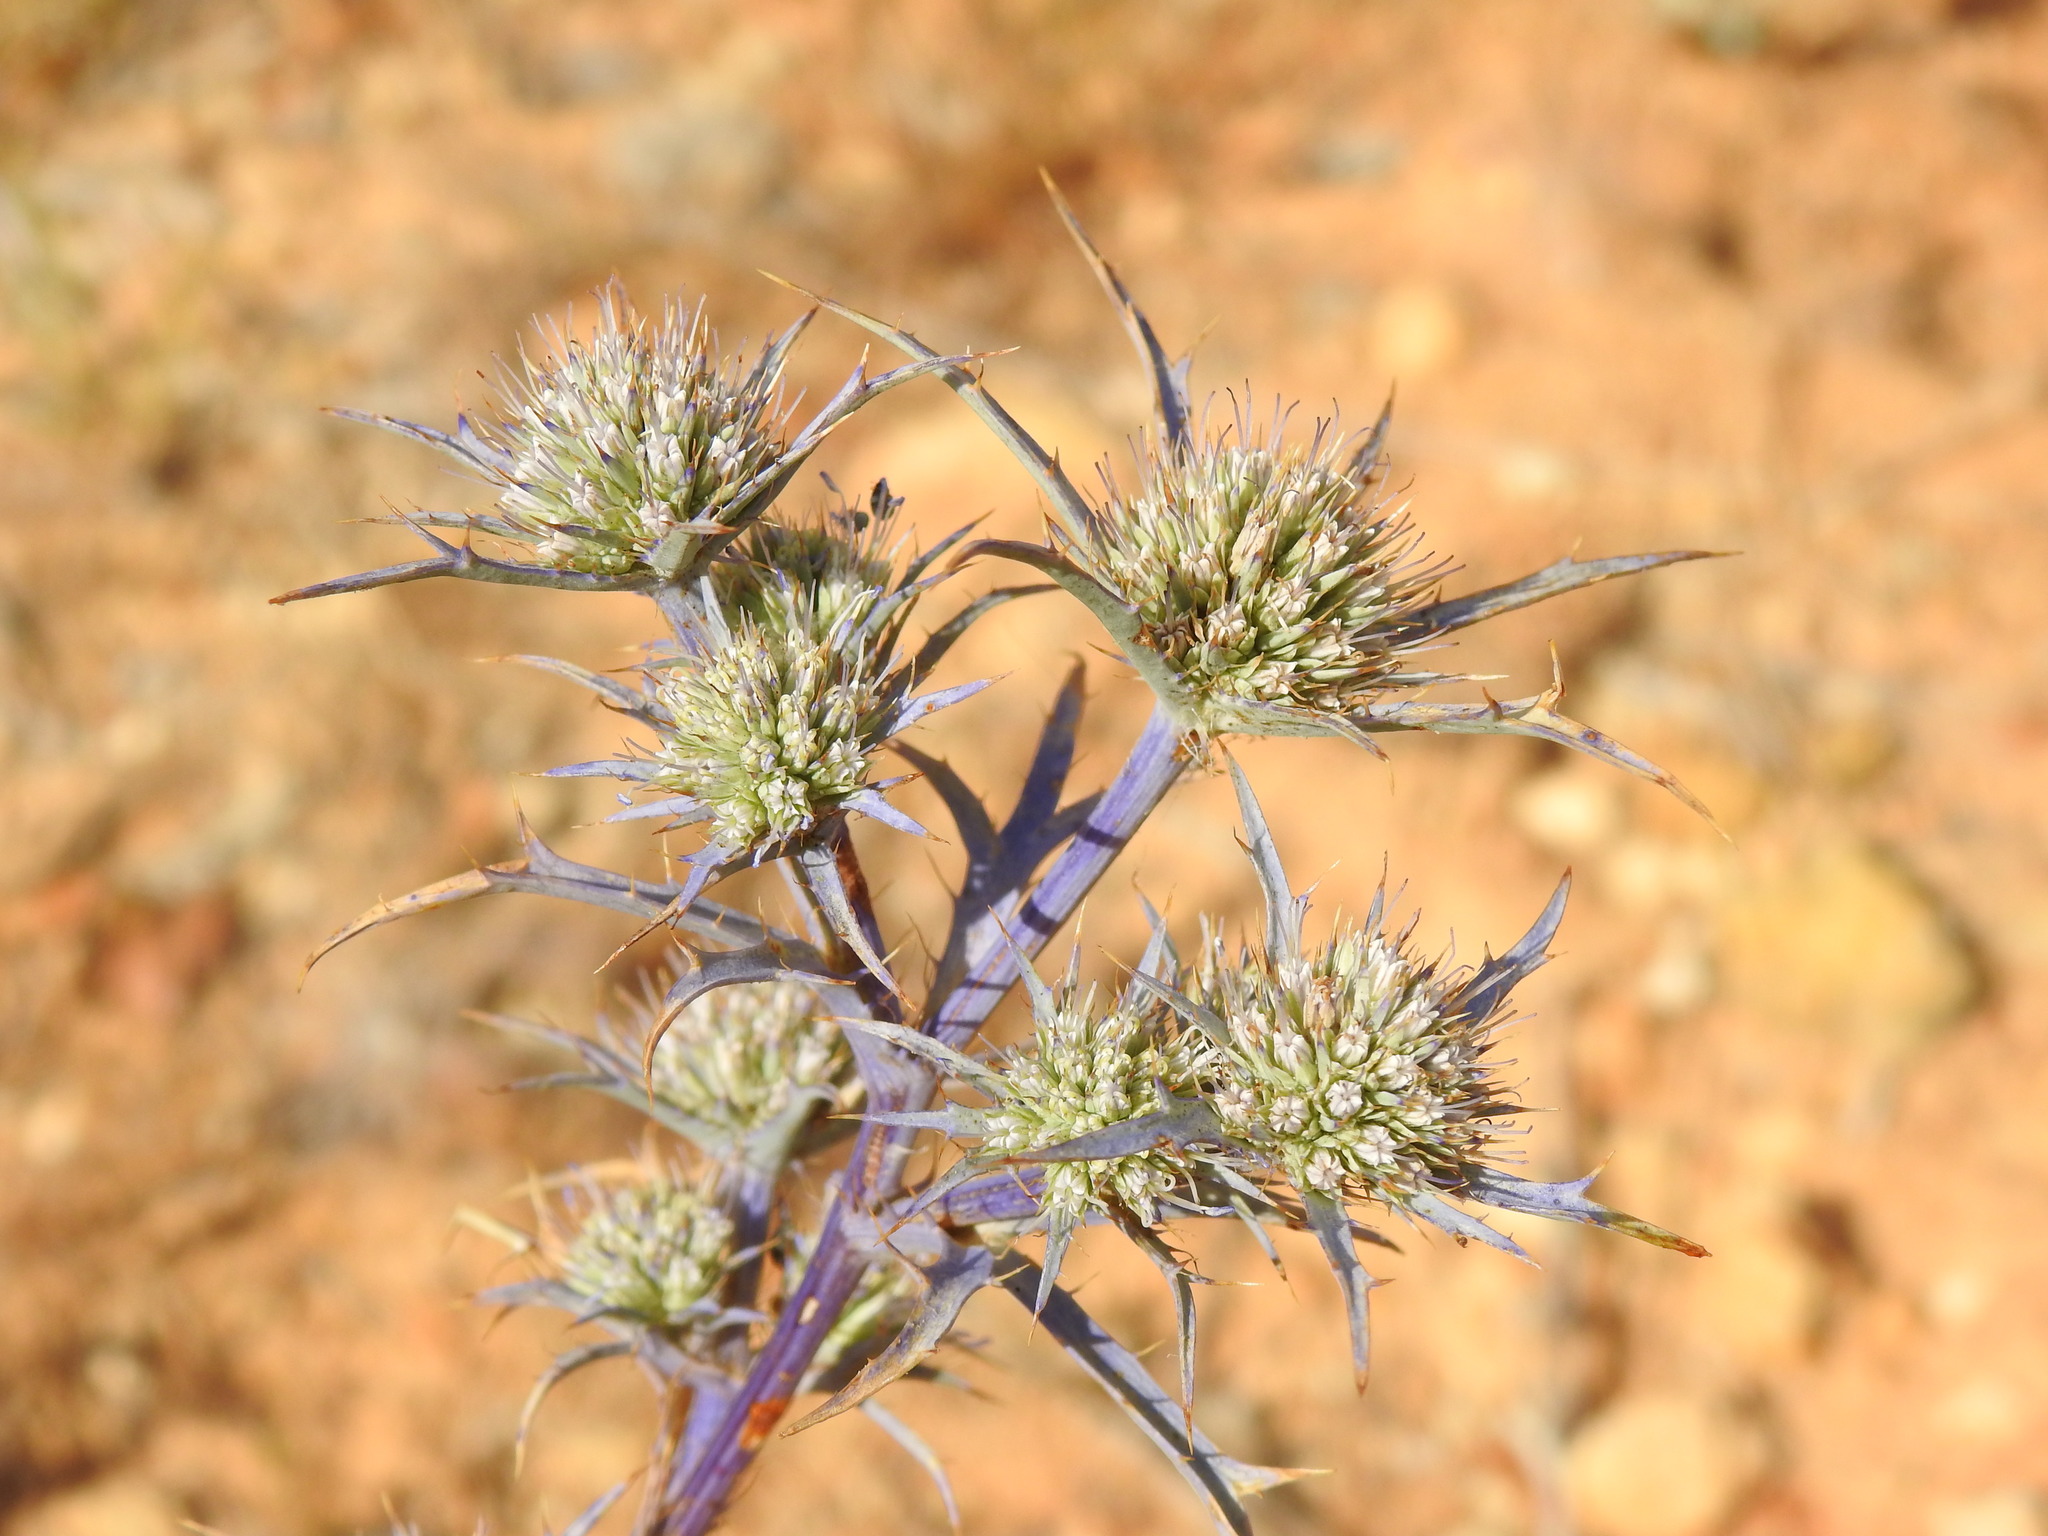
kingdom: Plantae
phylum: Tracheophyta
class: Magnoliopsida
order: Apiales
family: Apiaceae
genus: Eryngium
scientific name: Eryngium dilatatum
